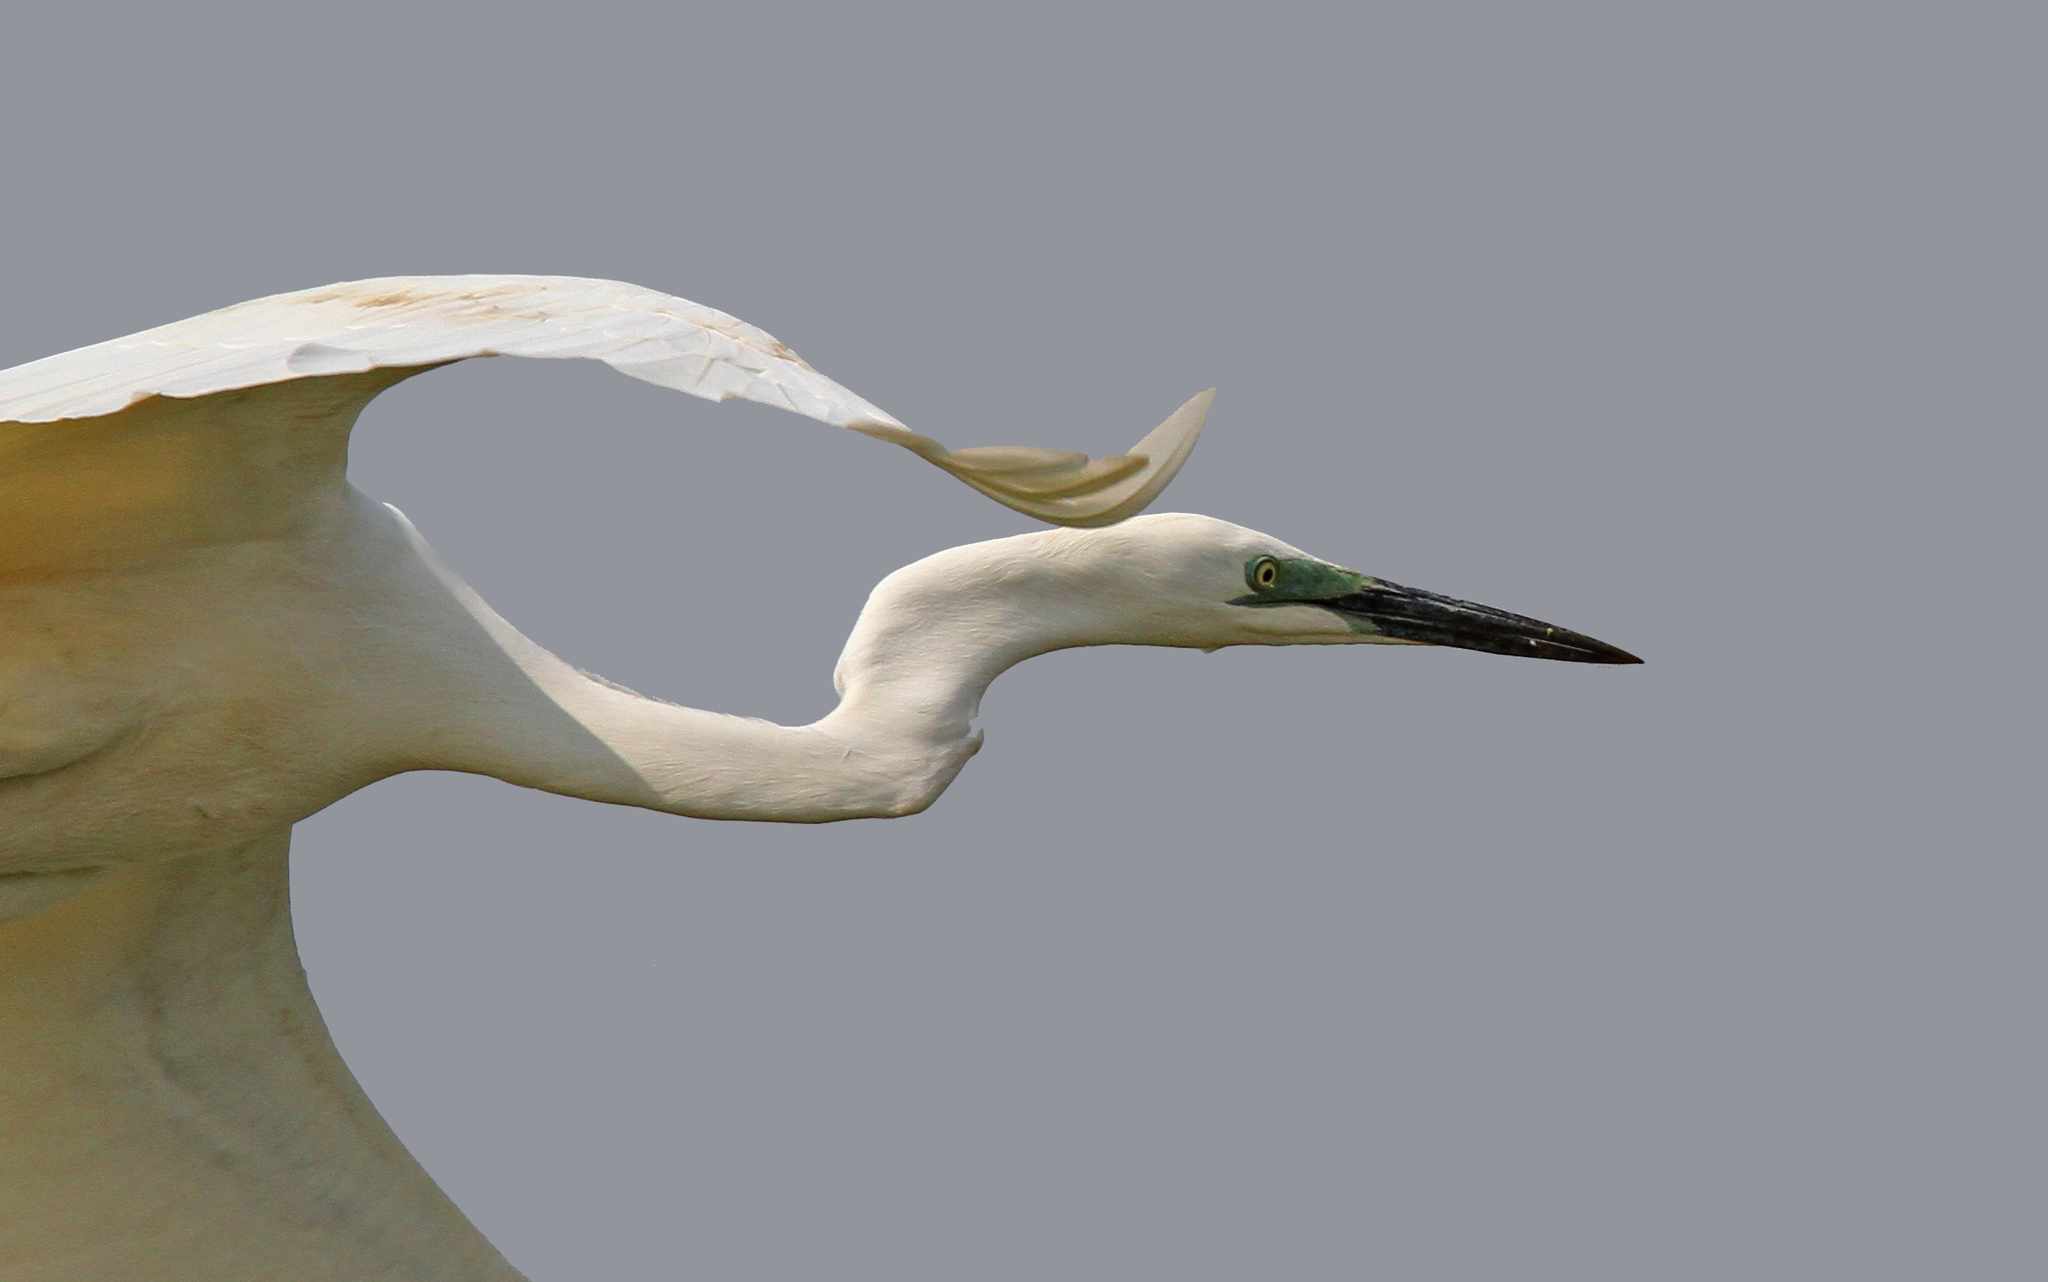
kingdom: Animalia
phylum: Chordata
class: Aves
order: Pelecaniformes
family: Ardeidae
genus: Ardea
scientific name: Ardea alba
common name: Great egret
